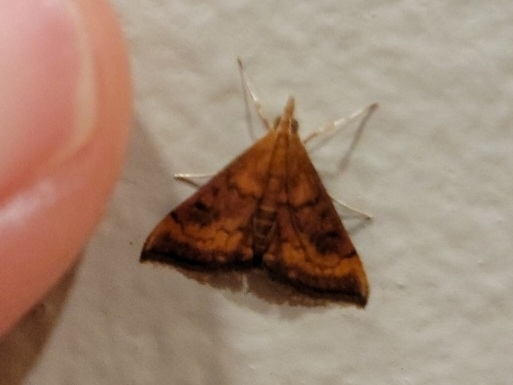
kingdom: Animalia
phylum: Arthropoda
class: Insecta
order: Lepidoptera
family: Crambidae
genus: Pyrausta
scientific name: Pyrausta rubricalis
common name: Variable reddish pyrausta
